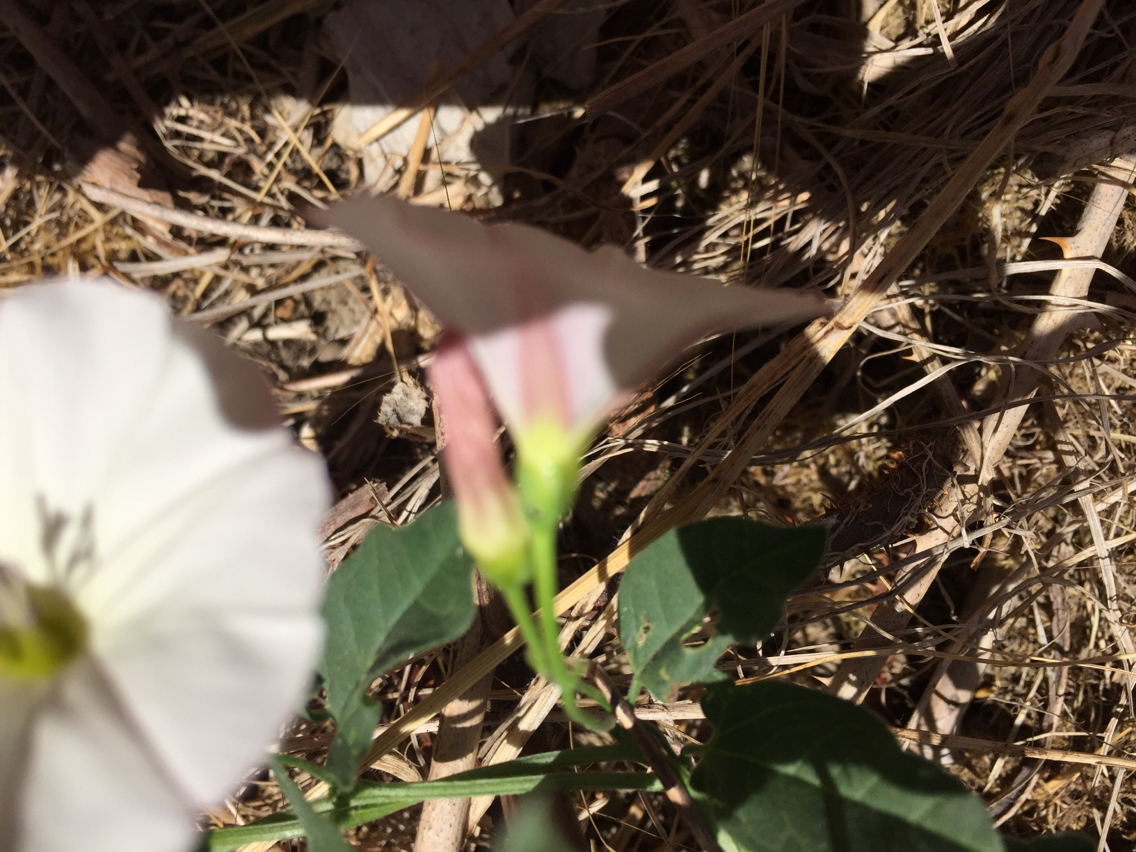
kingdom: Plantae
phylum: Tracheophyta
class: Magnoliopsida
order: Solanales
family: Convolvulaceae
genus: Convolvulus
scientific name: Convolvulus arvensis
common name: Field bindweed
